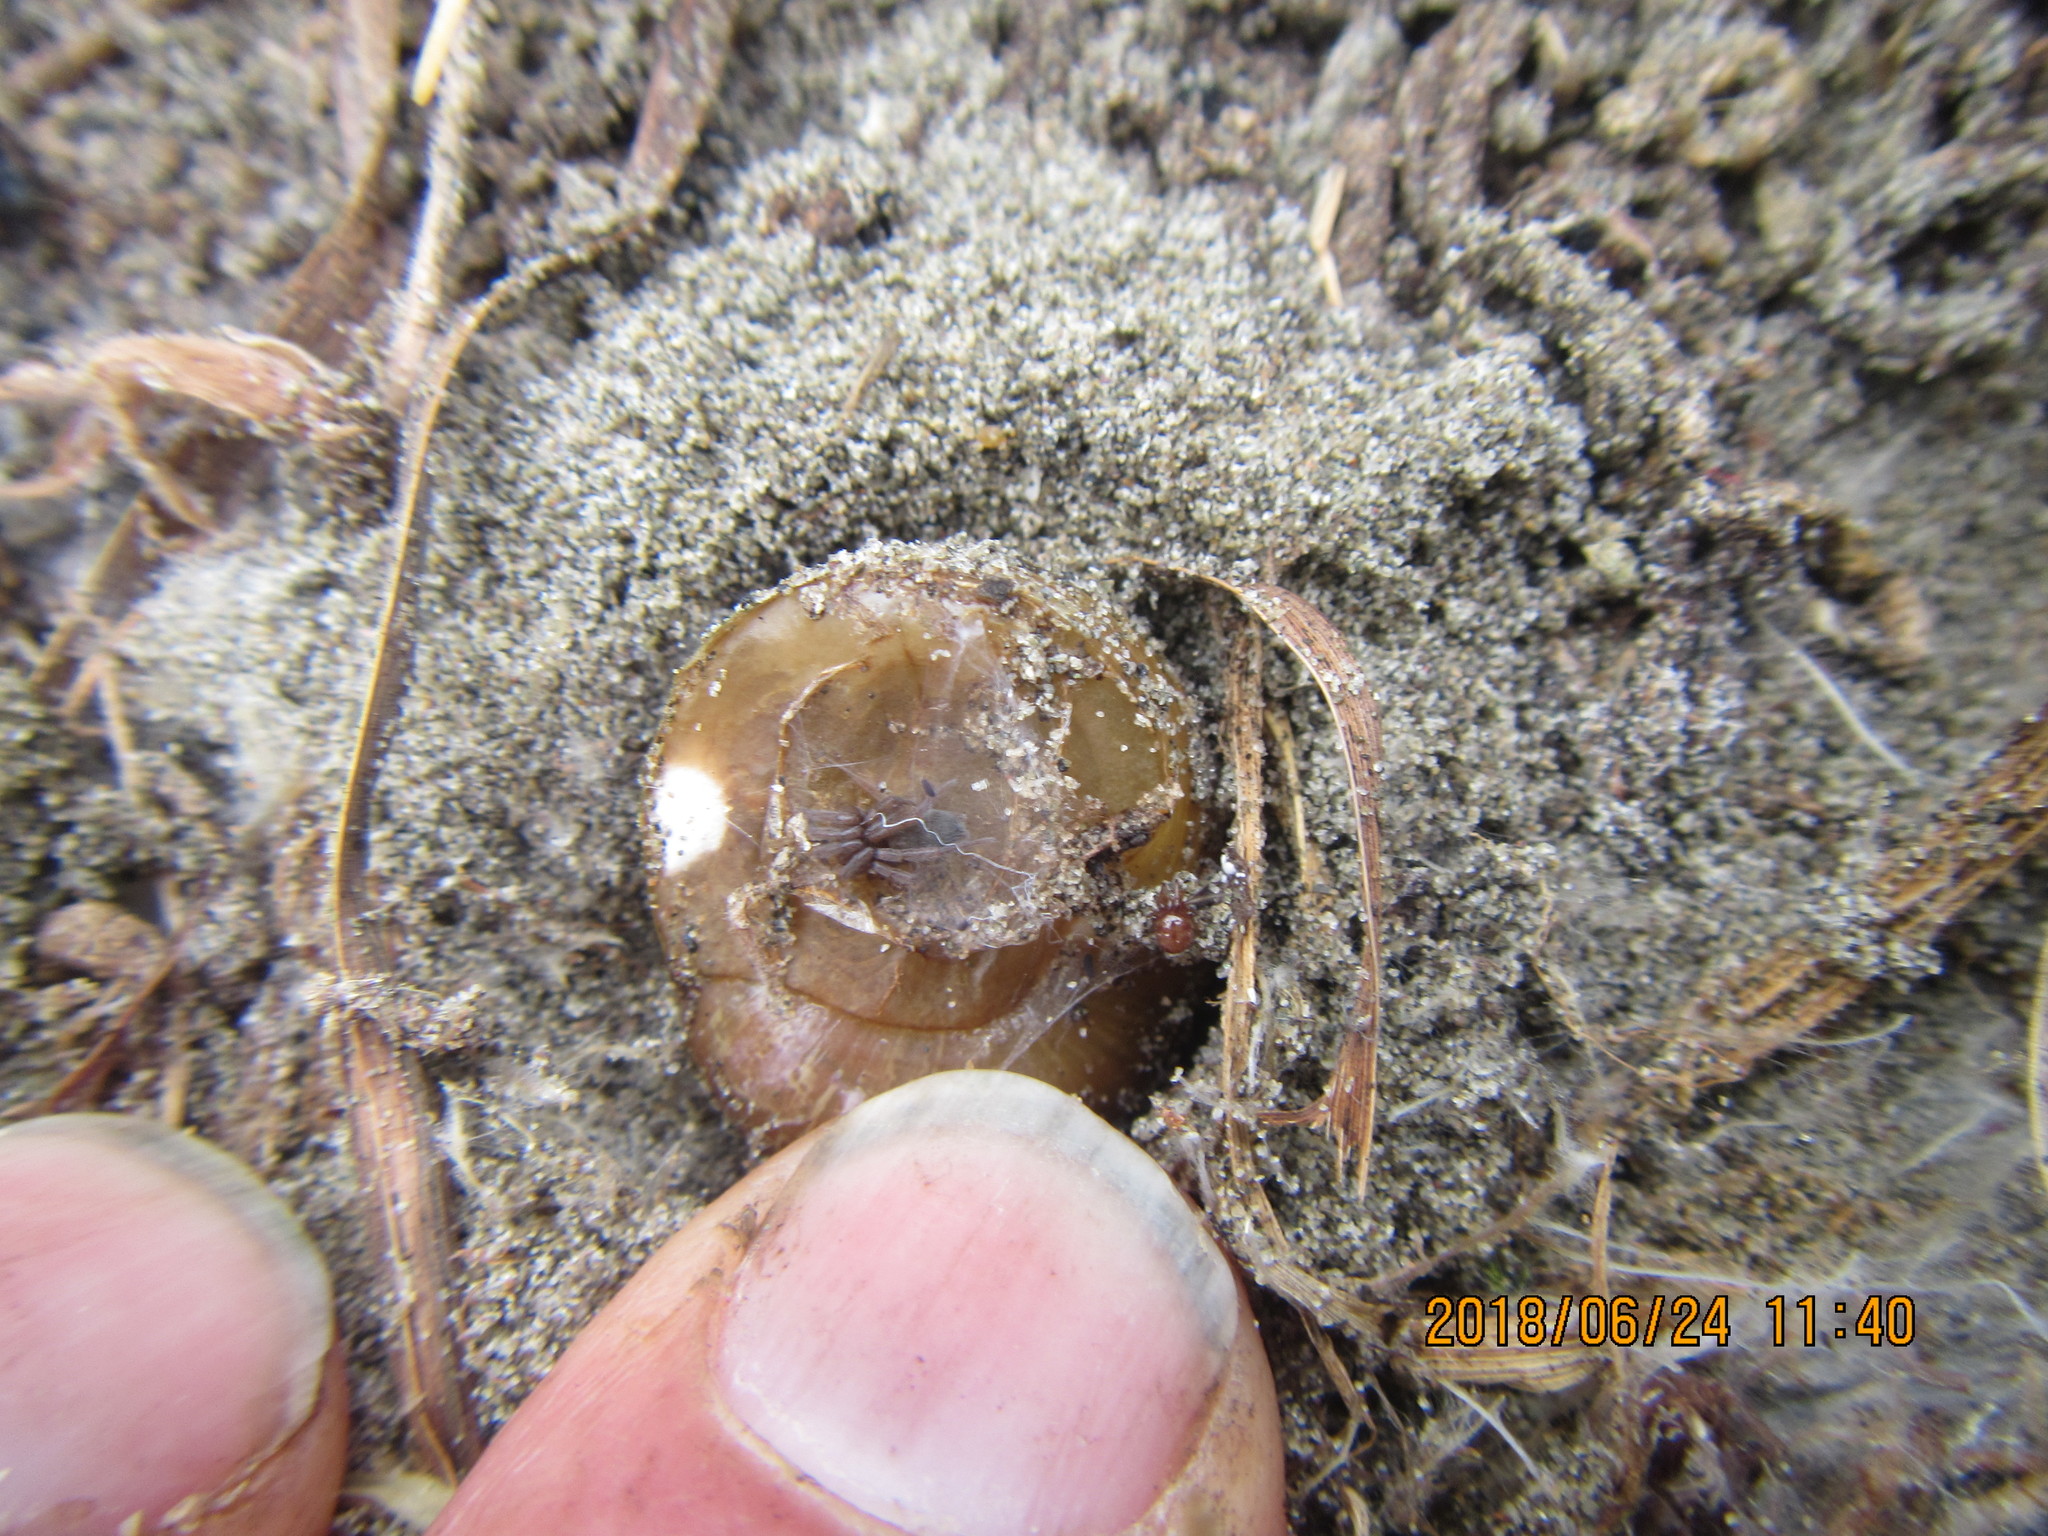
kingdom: Animalia
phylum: Mollusca
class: Gastropoda
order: Stylommatophora
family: Helicidae
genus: Cornu
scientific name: Cornu aspersum
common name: Brown garden snail
